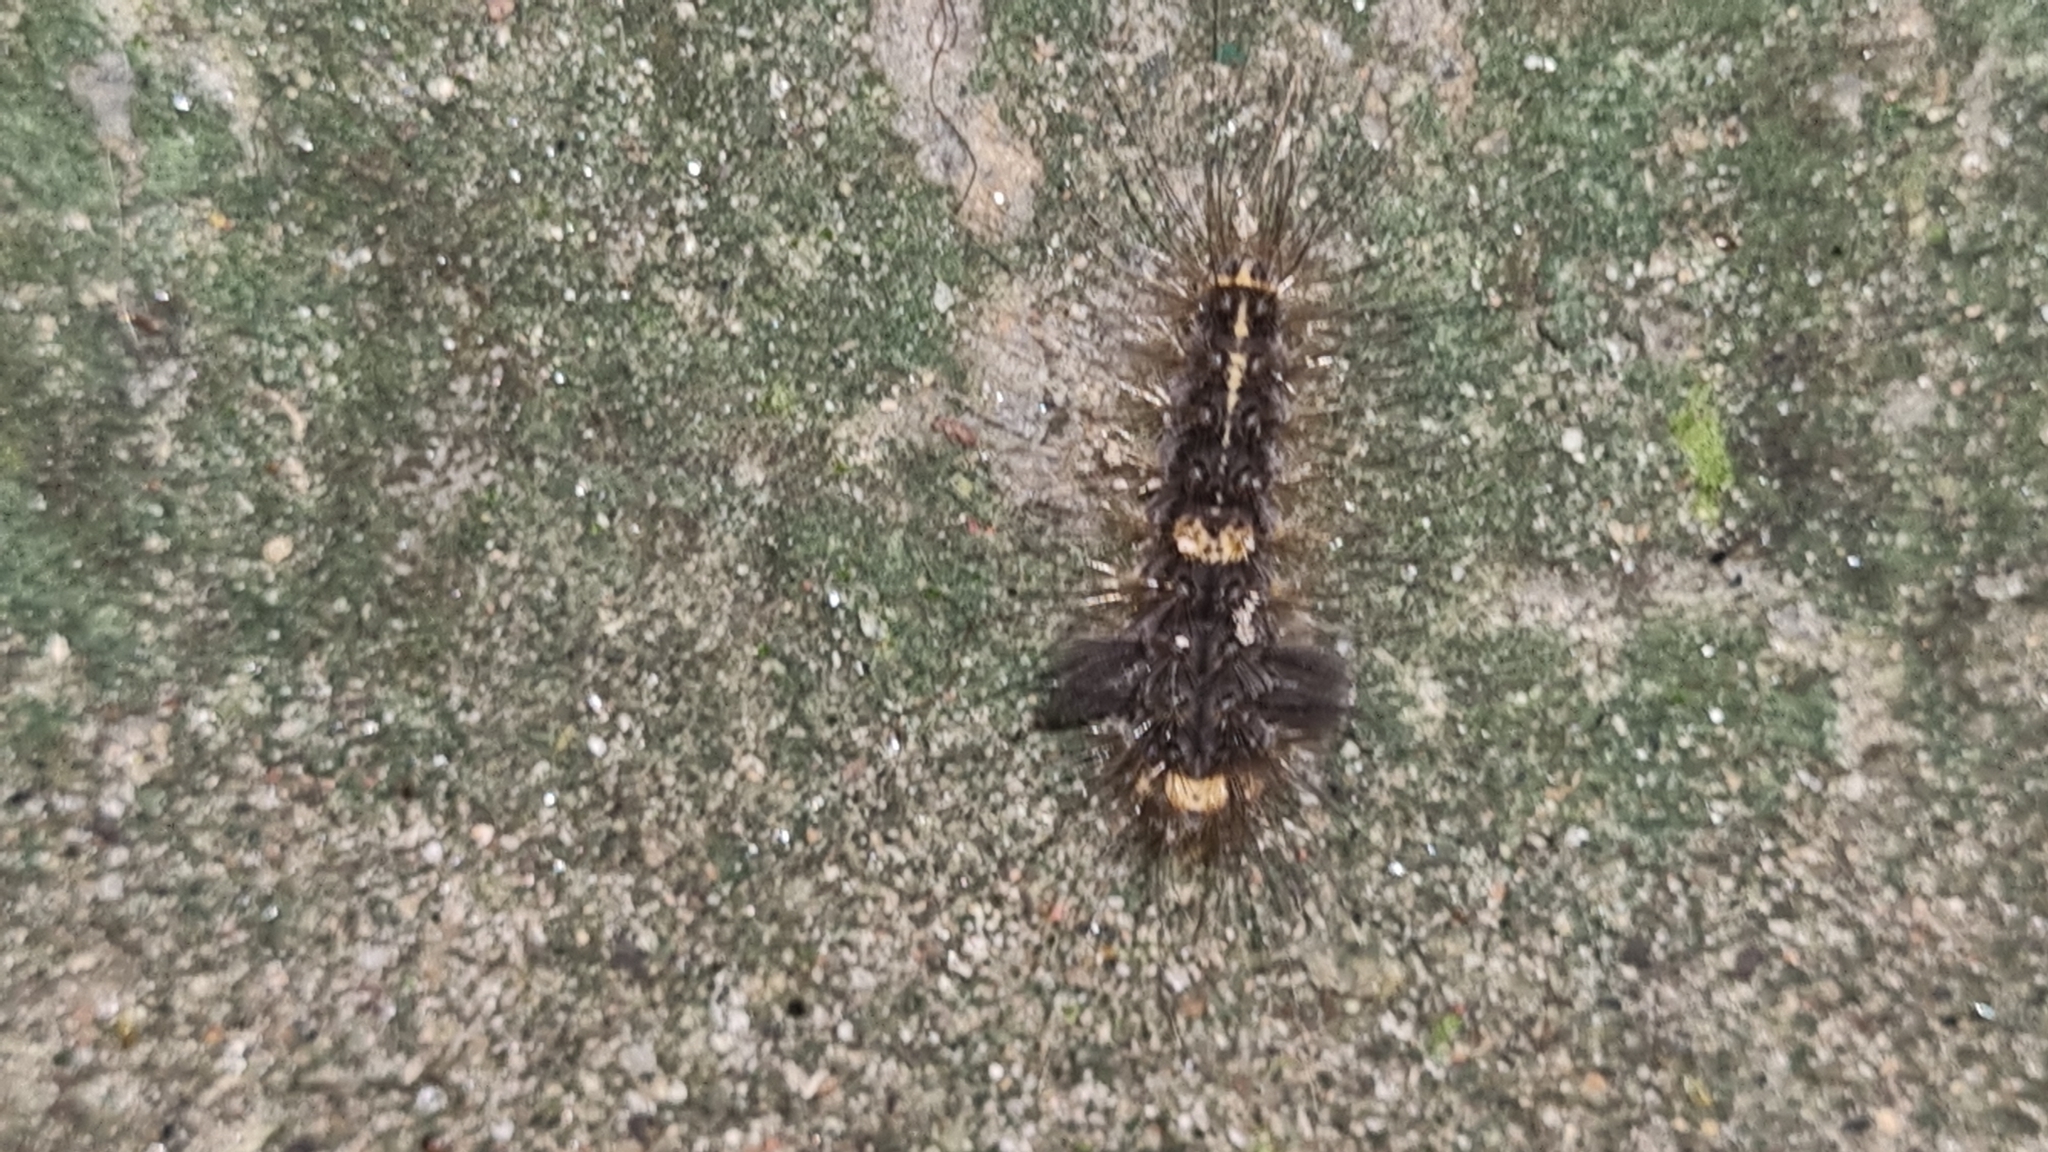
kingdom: Animalia
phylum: Arthropoda
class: Insecta
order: Lepidoptera
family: Erebidae
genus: Nepita
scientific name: Nepita conferta
